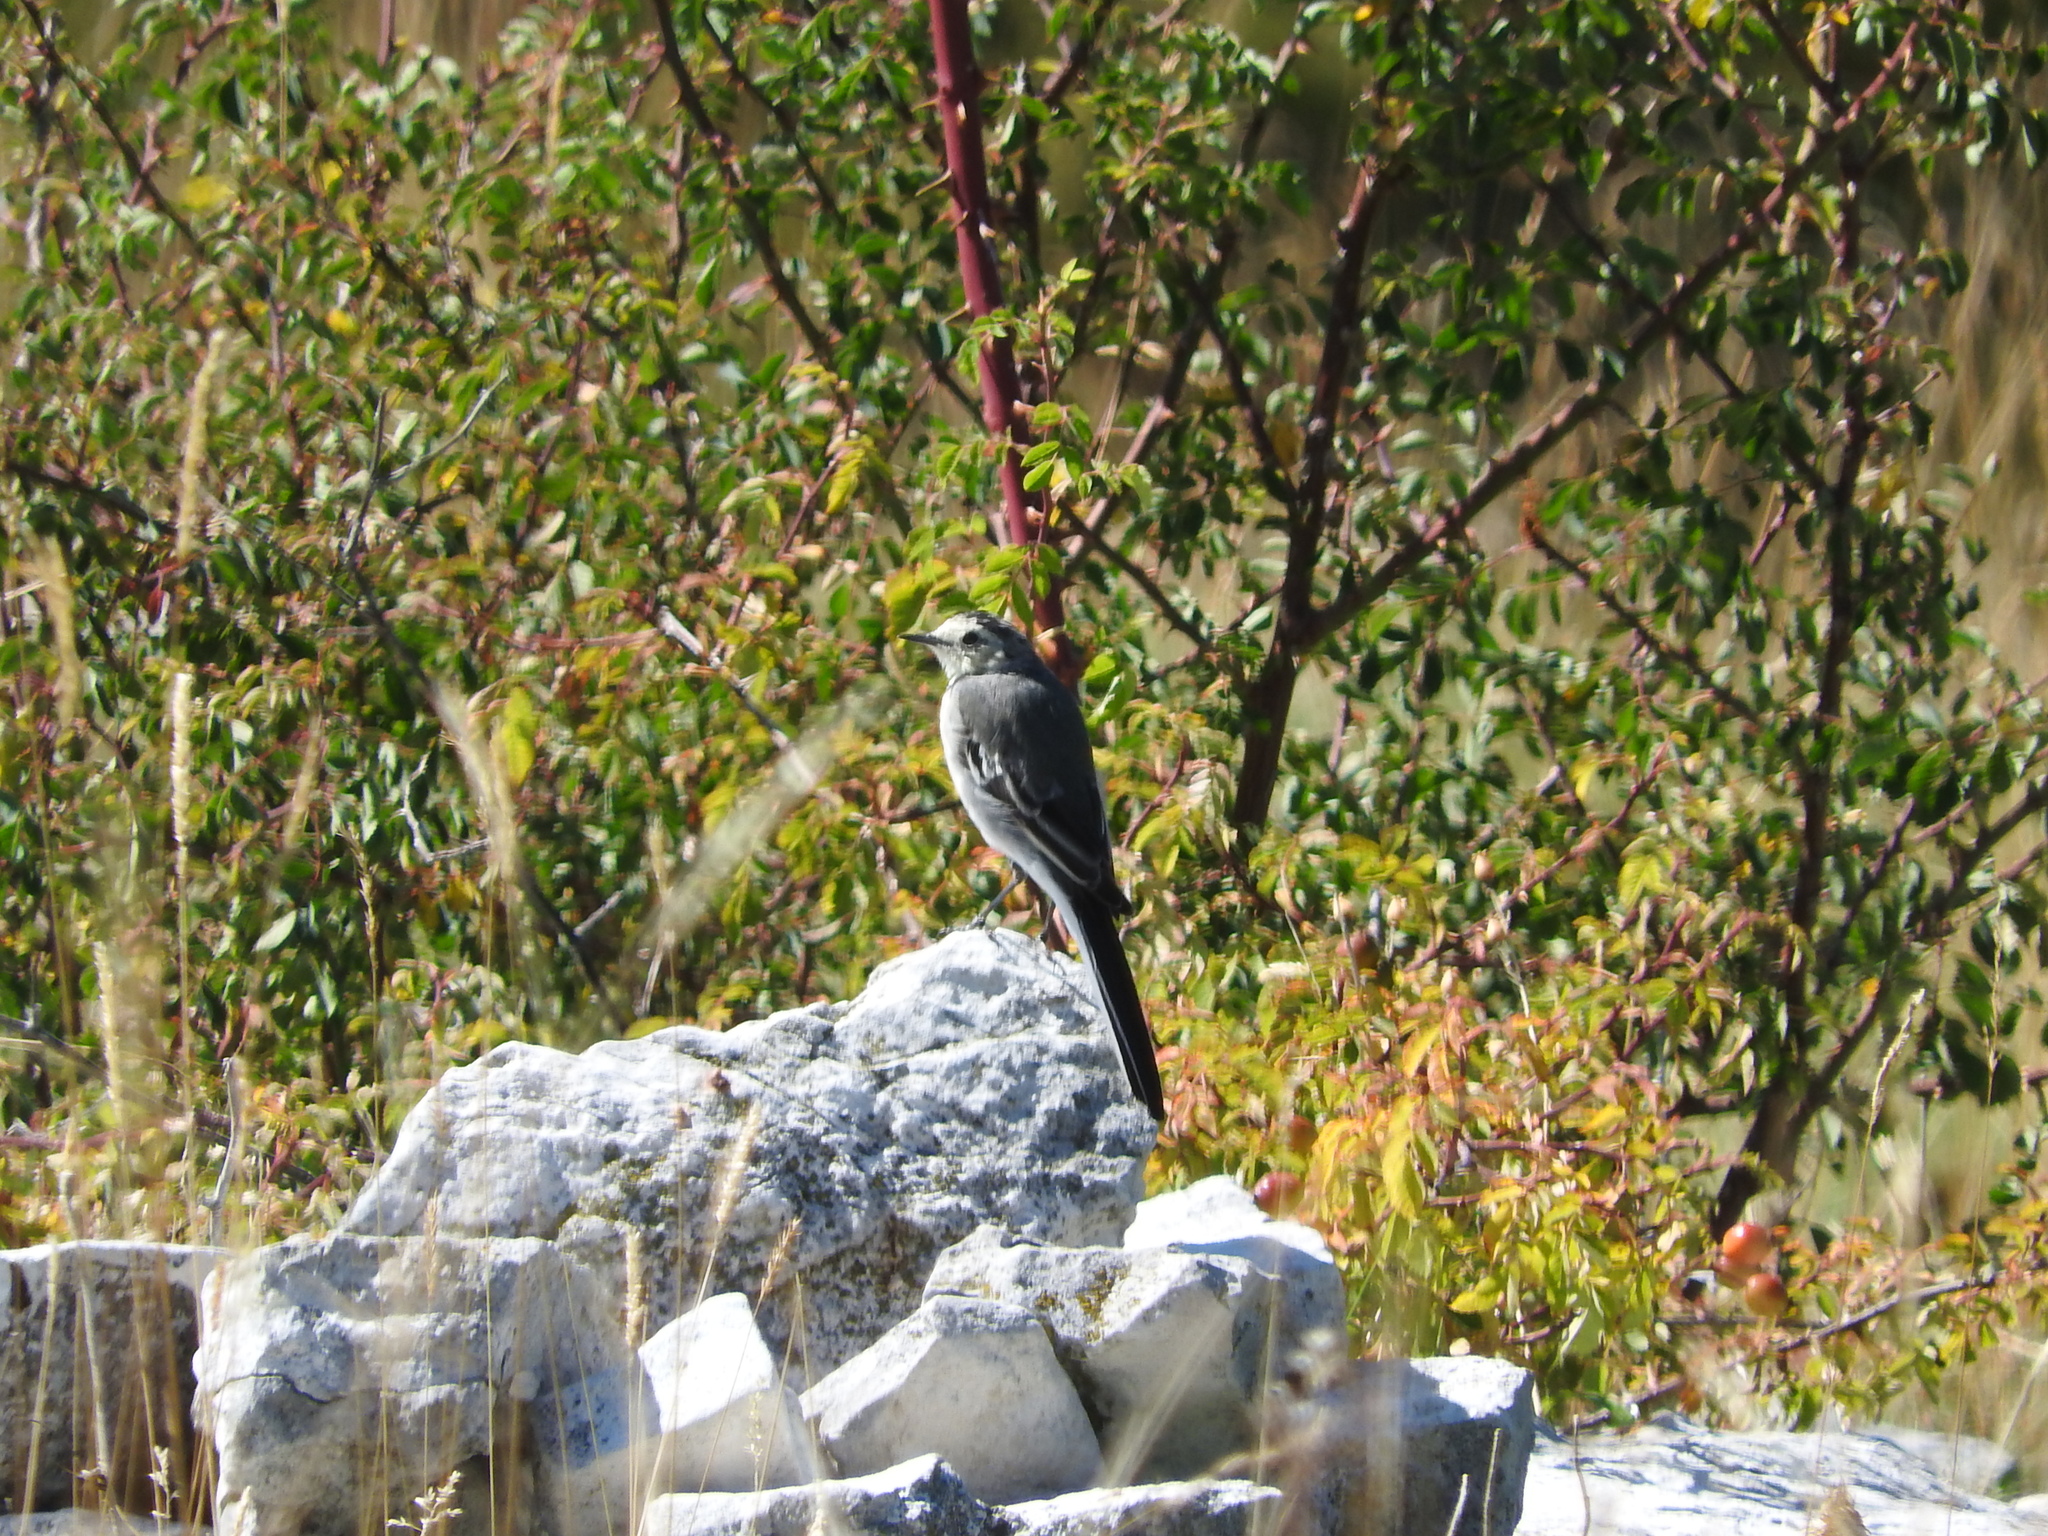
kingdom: Animalia
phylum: Chordata
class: Aves
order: Passeriformes
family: Motacillidae
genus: Motacilla
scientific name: Motacilla alba
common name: White wagtail
